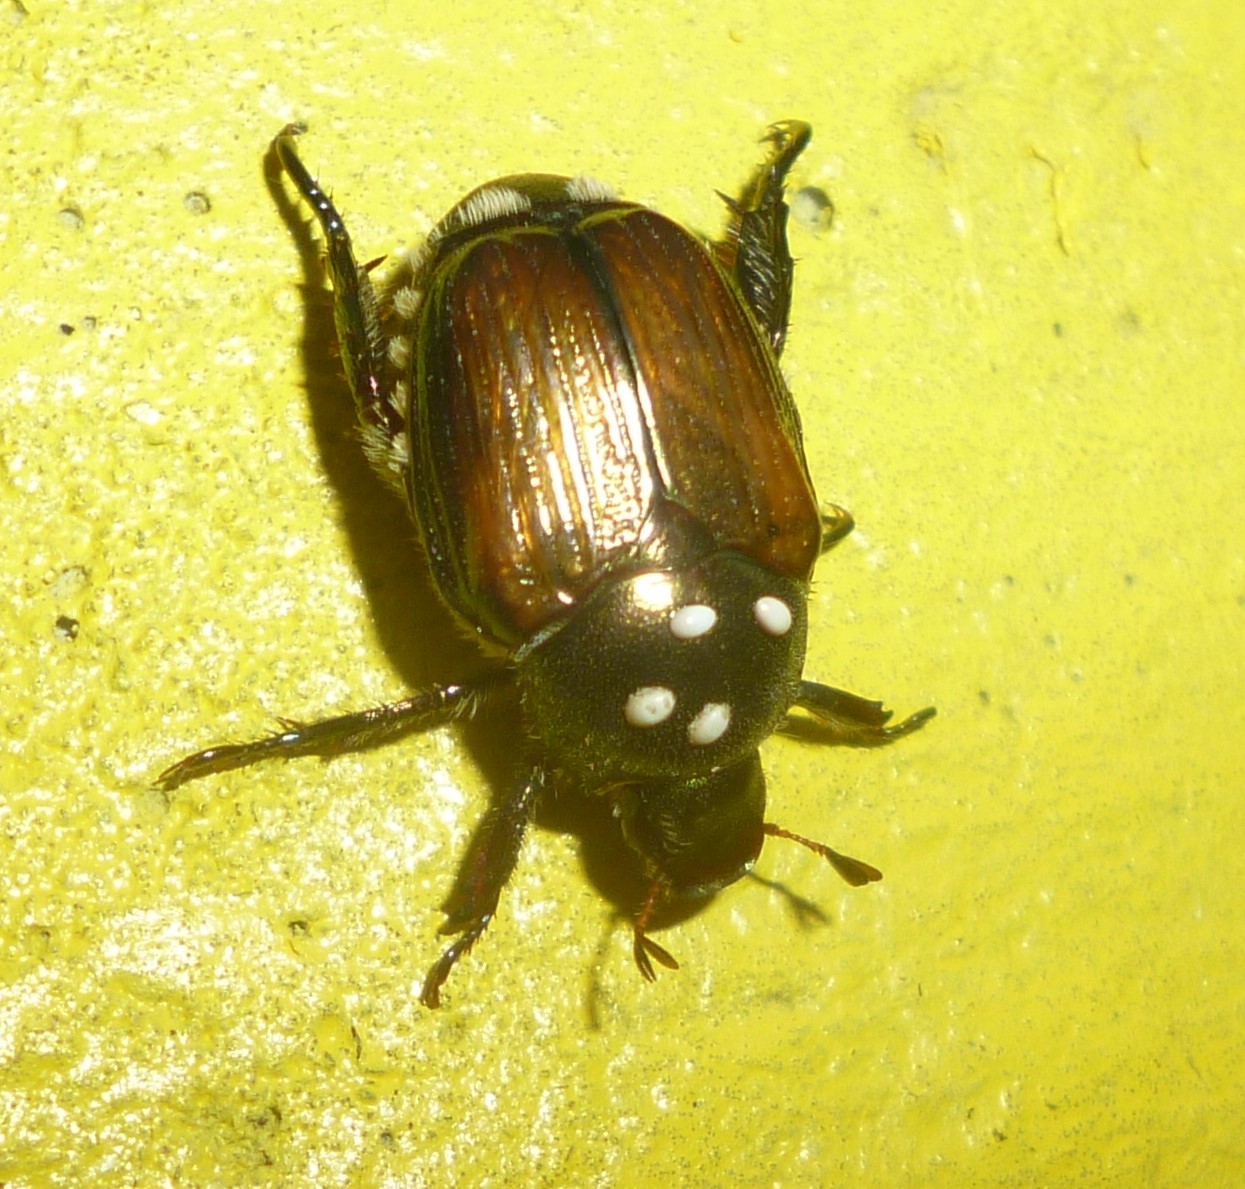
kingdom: Animalia
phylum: Arthropoda
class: Insecta
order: Coleoptera
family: Scarabaeidae
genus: Popillia
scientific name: Popillia japonica
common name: Japanese beetle
